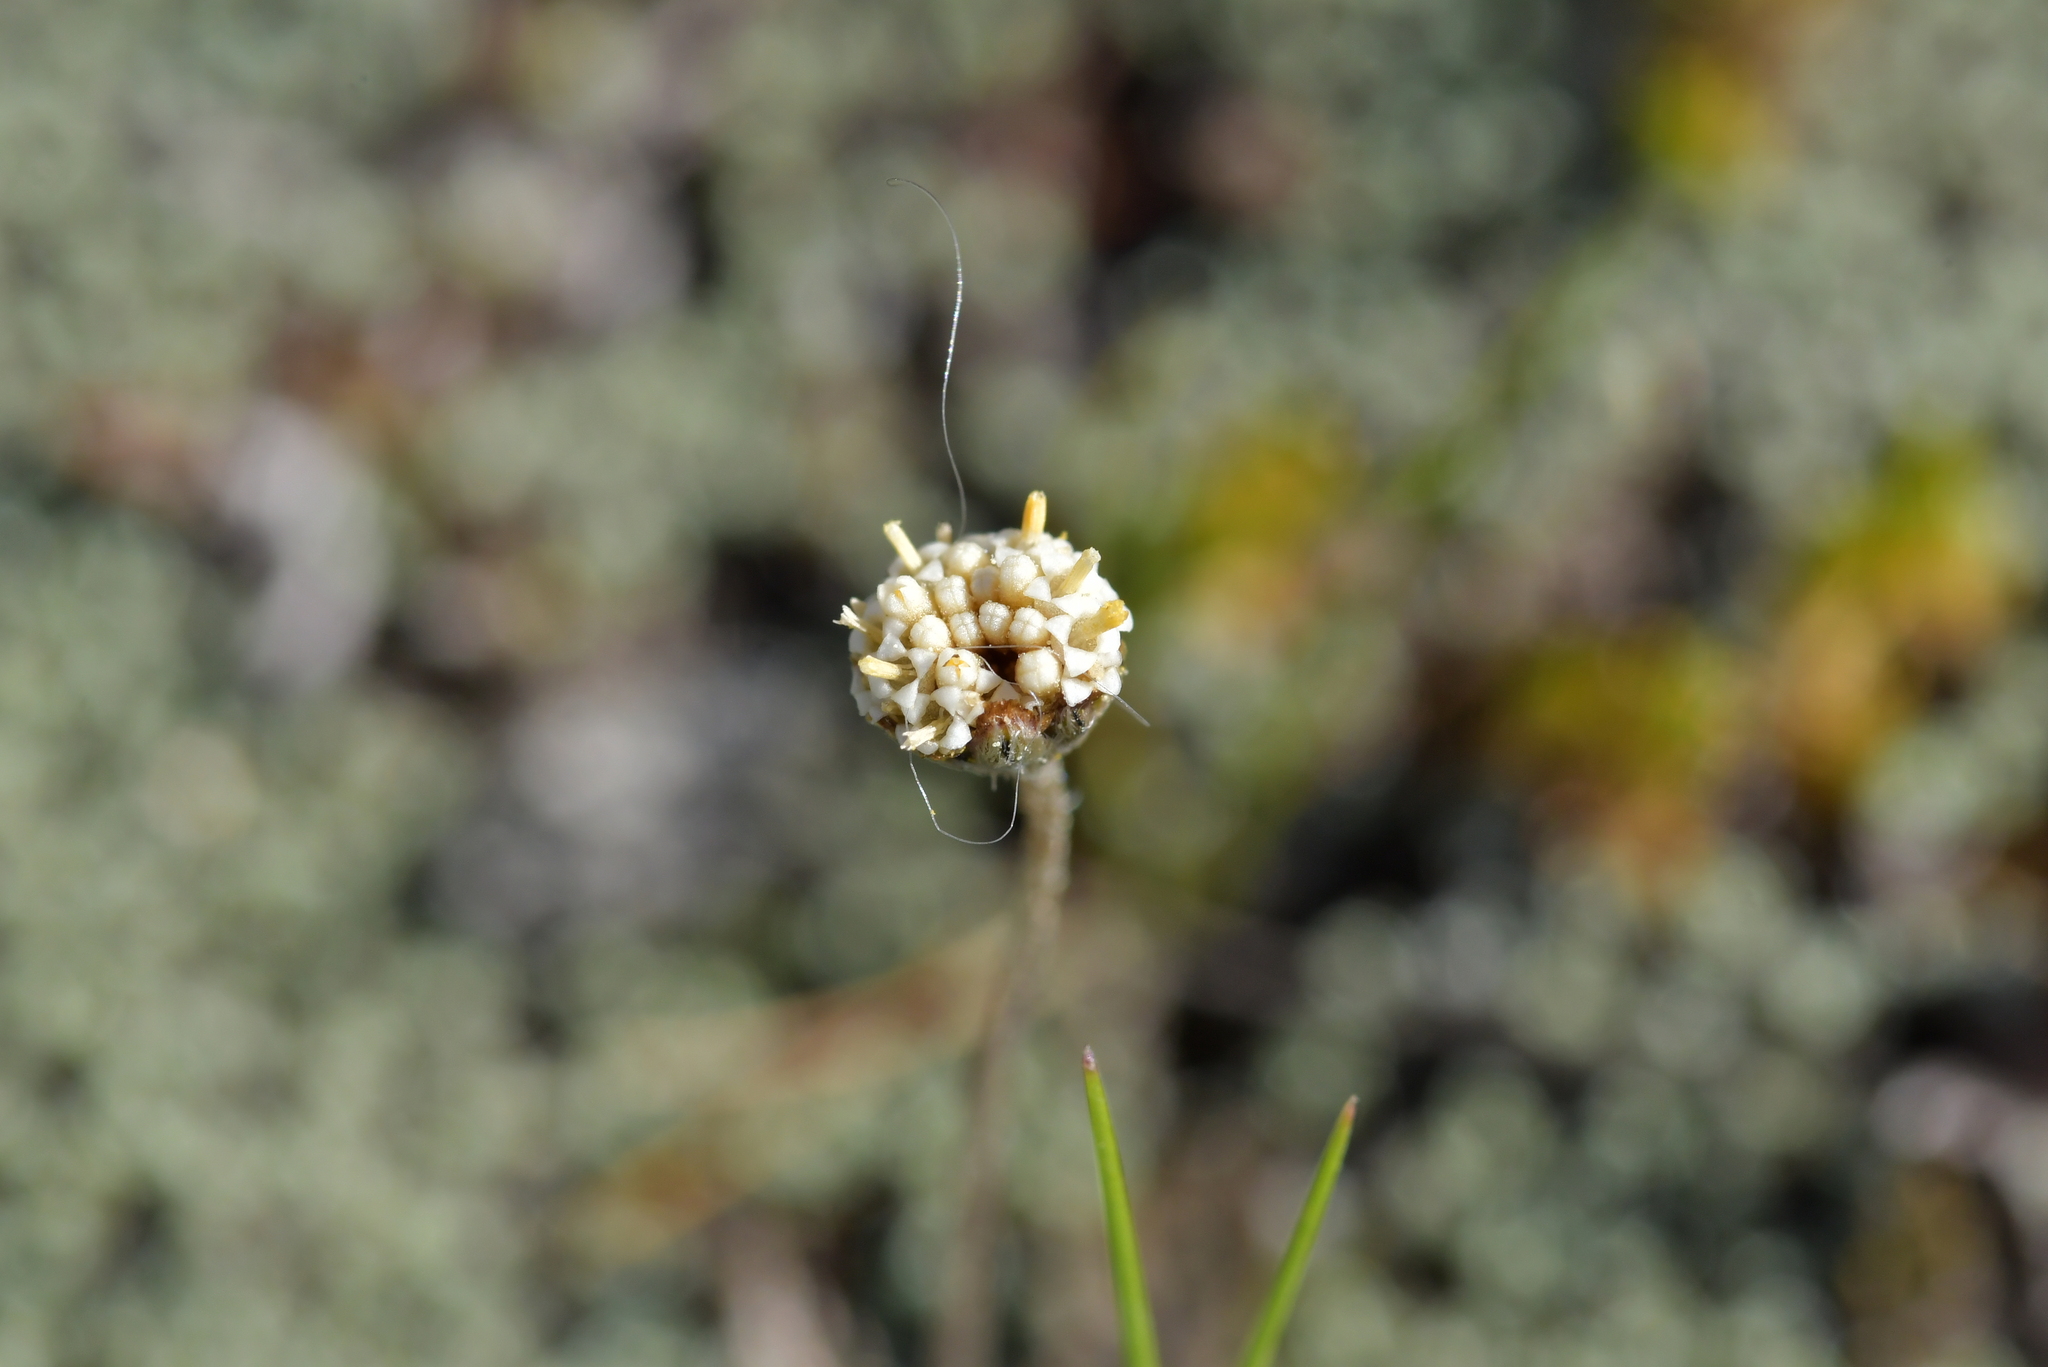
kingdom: Plantae
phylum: Tracheophyta
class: Magnoliopsida
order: Asterales
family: Asteraceae
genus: Leptinella
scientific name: Leptinella conjuncta
